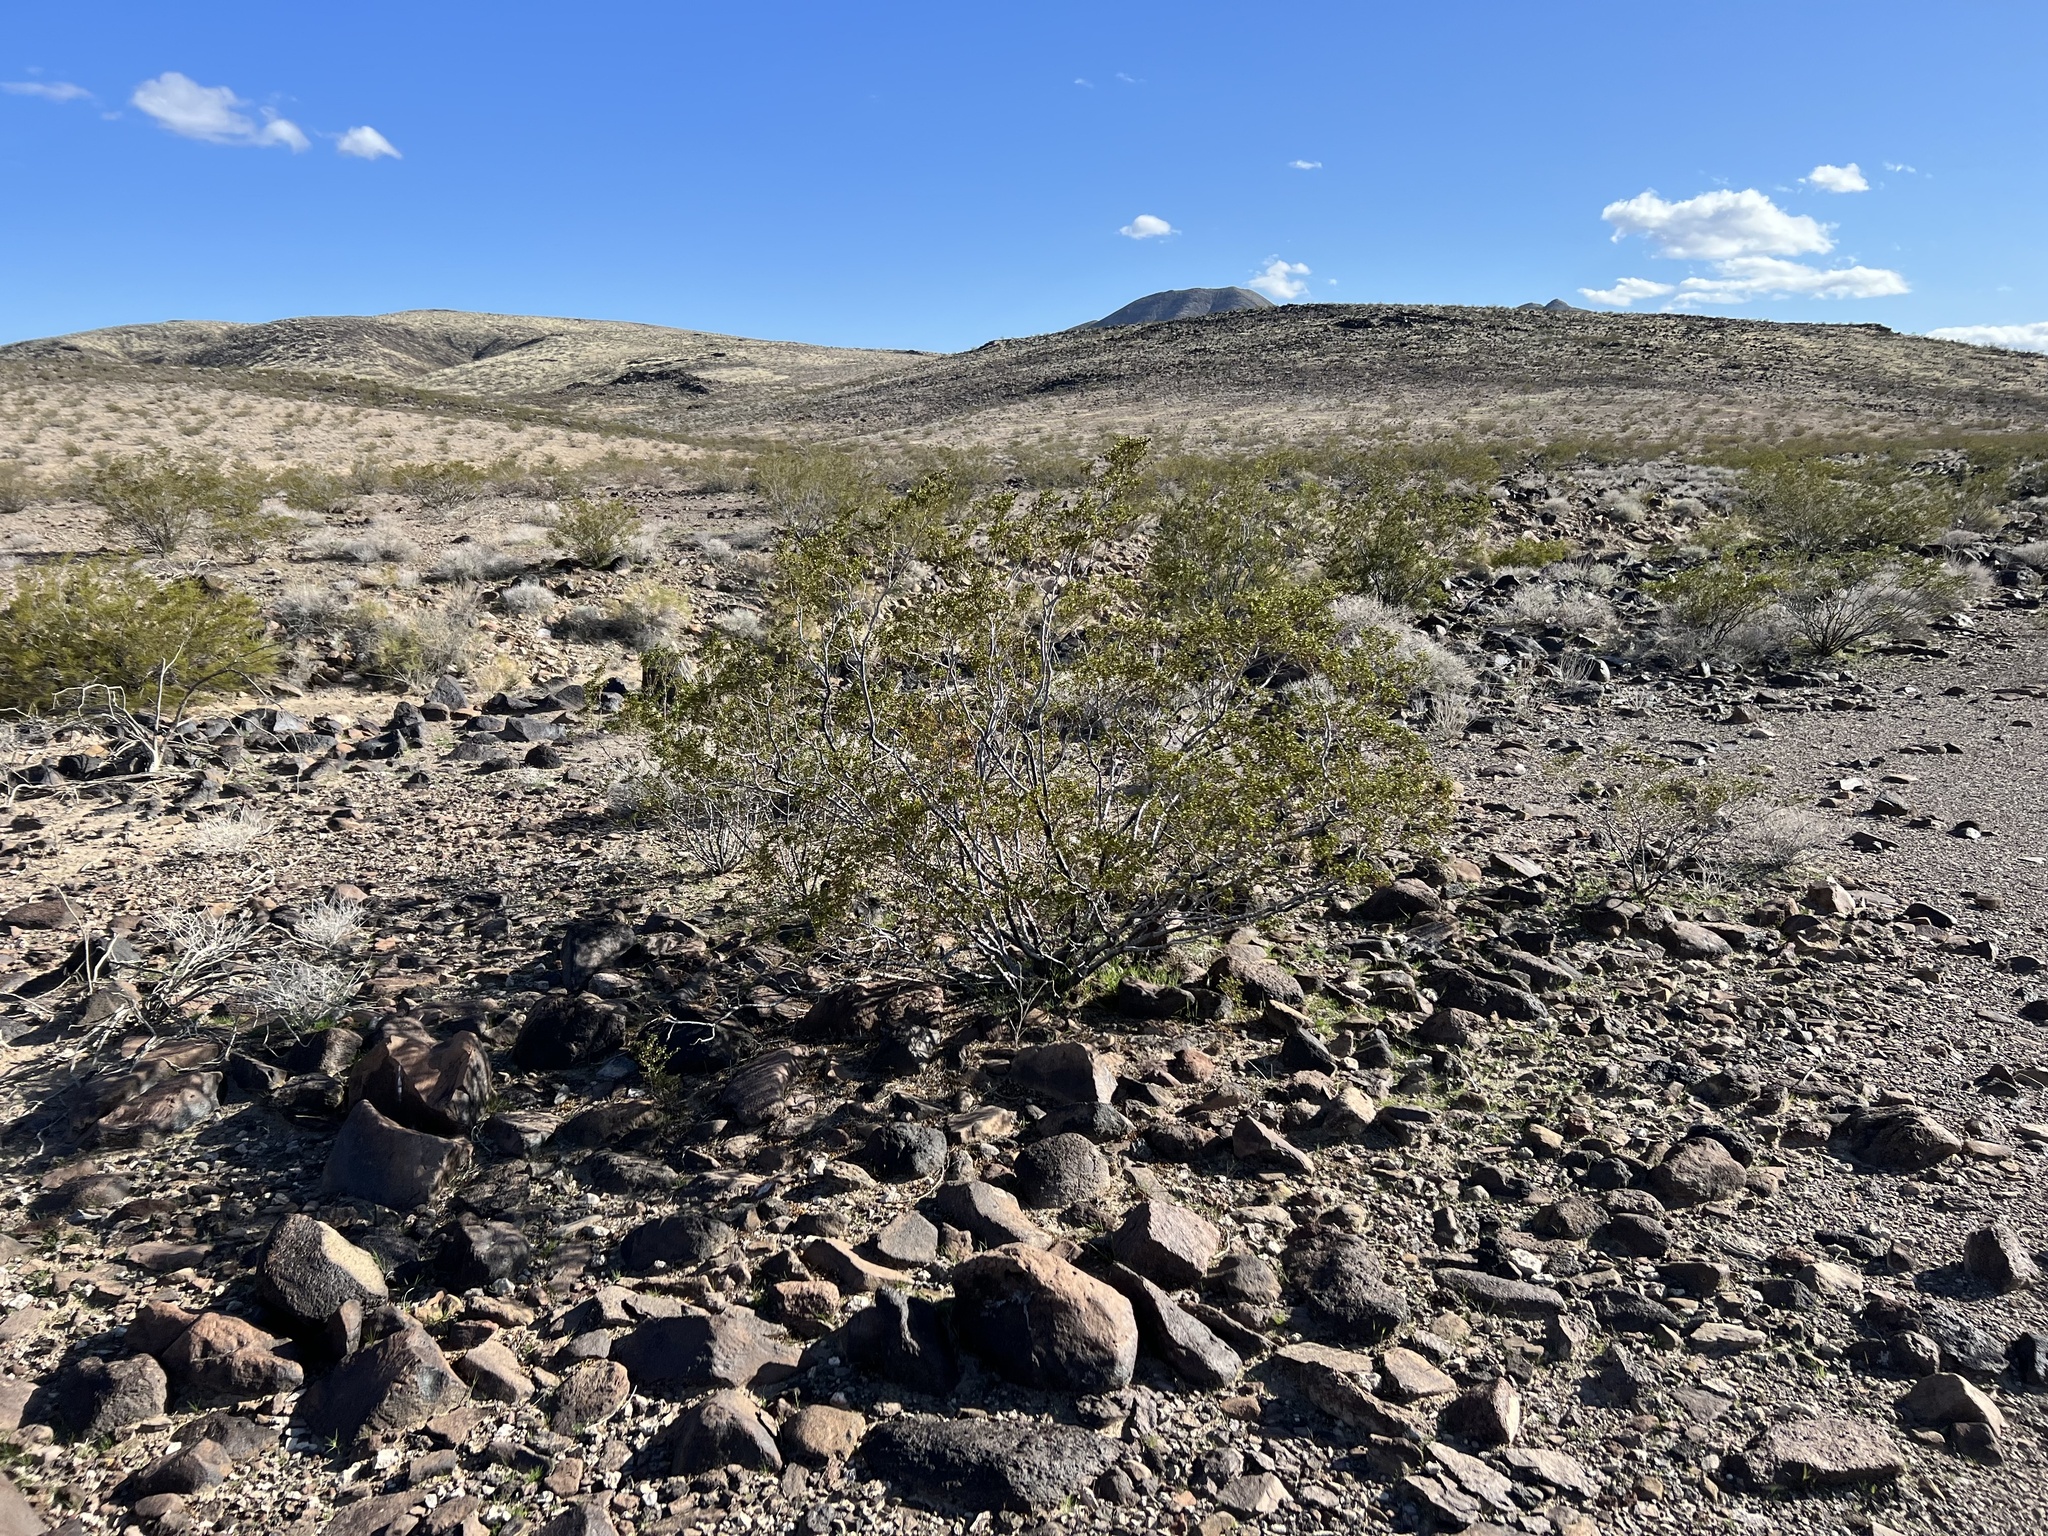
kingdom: Plantae
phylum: Tracheophyta
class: Magnoliopsida
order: Zygophyllales
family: Zygophyllaceae
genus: Larrea
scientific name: Larrea tridentata
